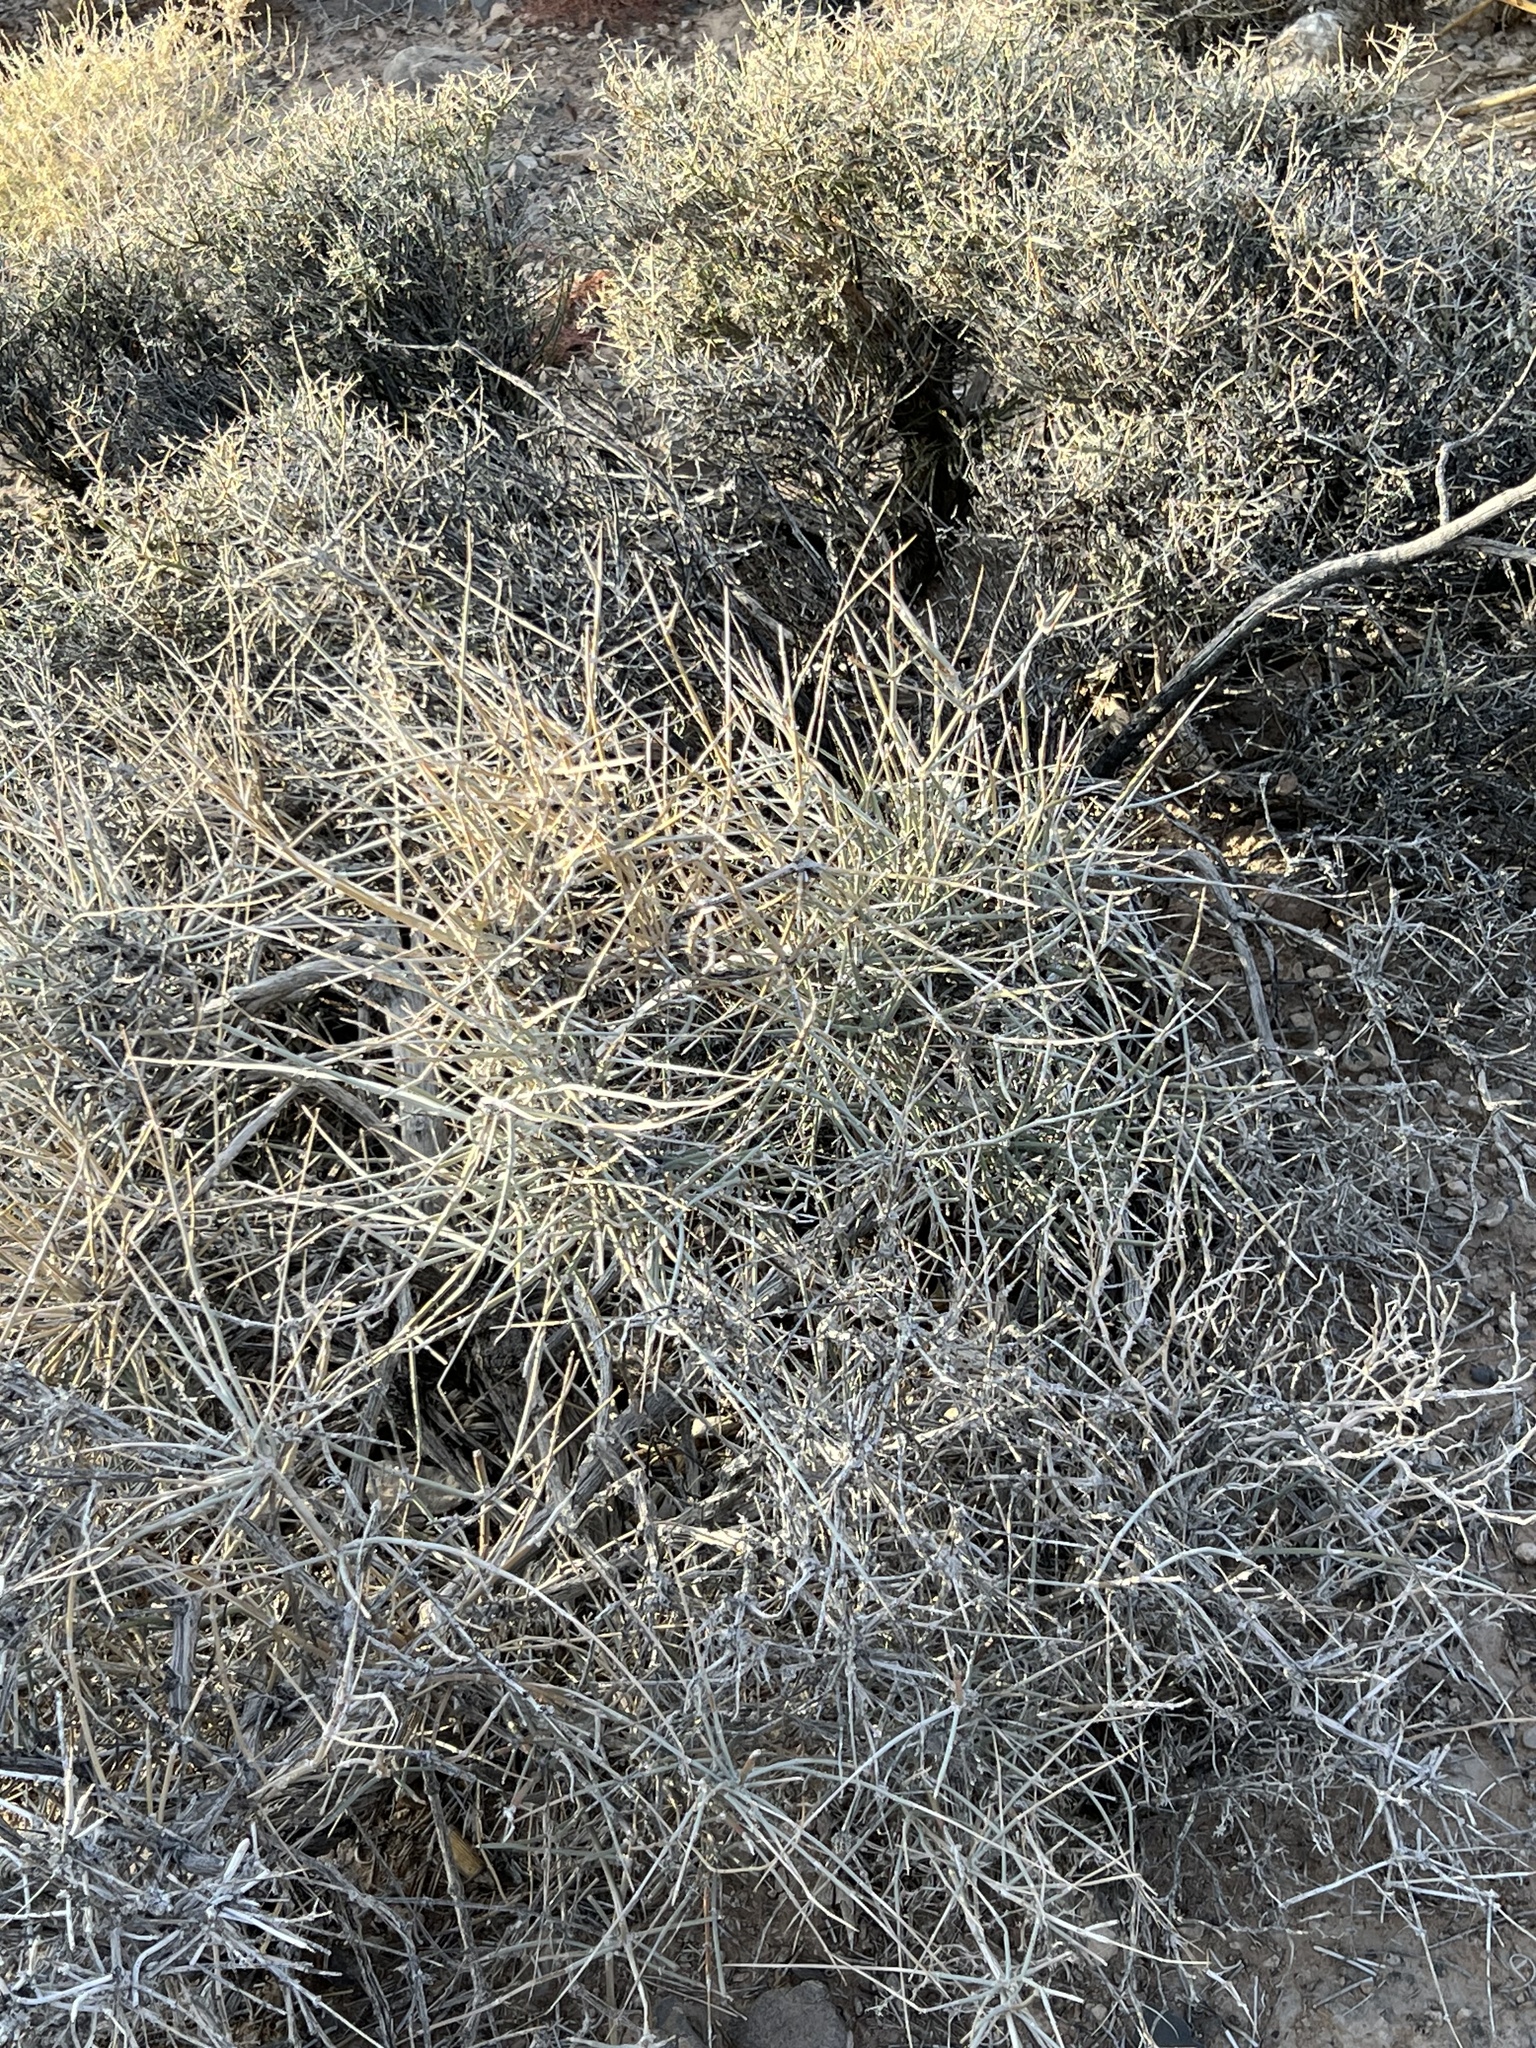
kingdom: Plantae
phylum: Tracheophyta
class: Gnetopsida
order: Ephedrales
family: Ephedraceae
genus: Ephedra
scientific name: Ephedra nevadensis
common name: Gray ephedra
